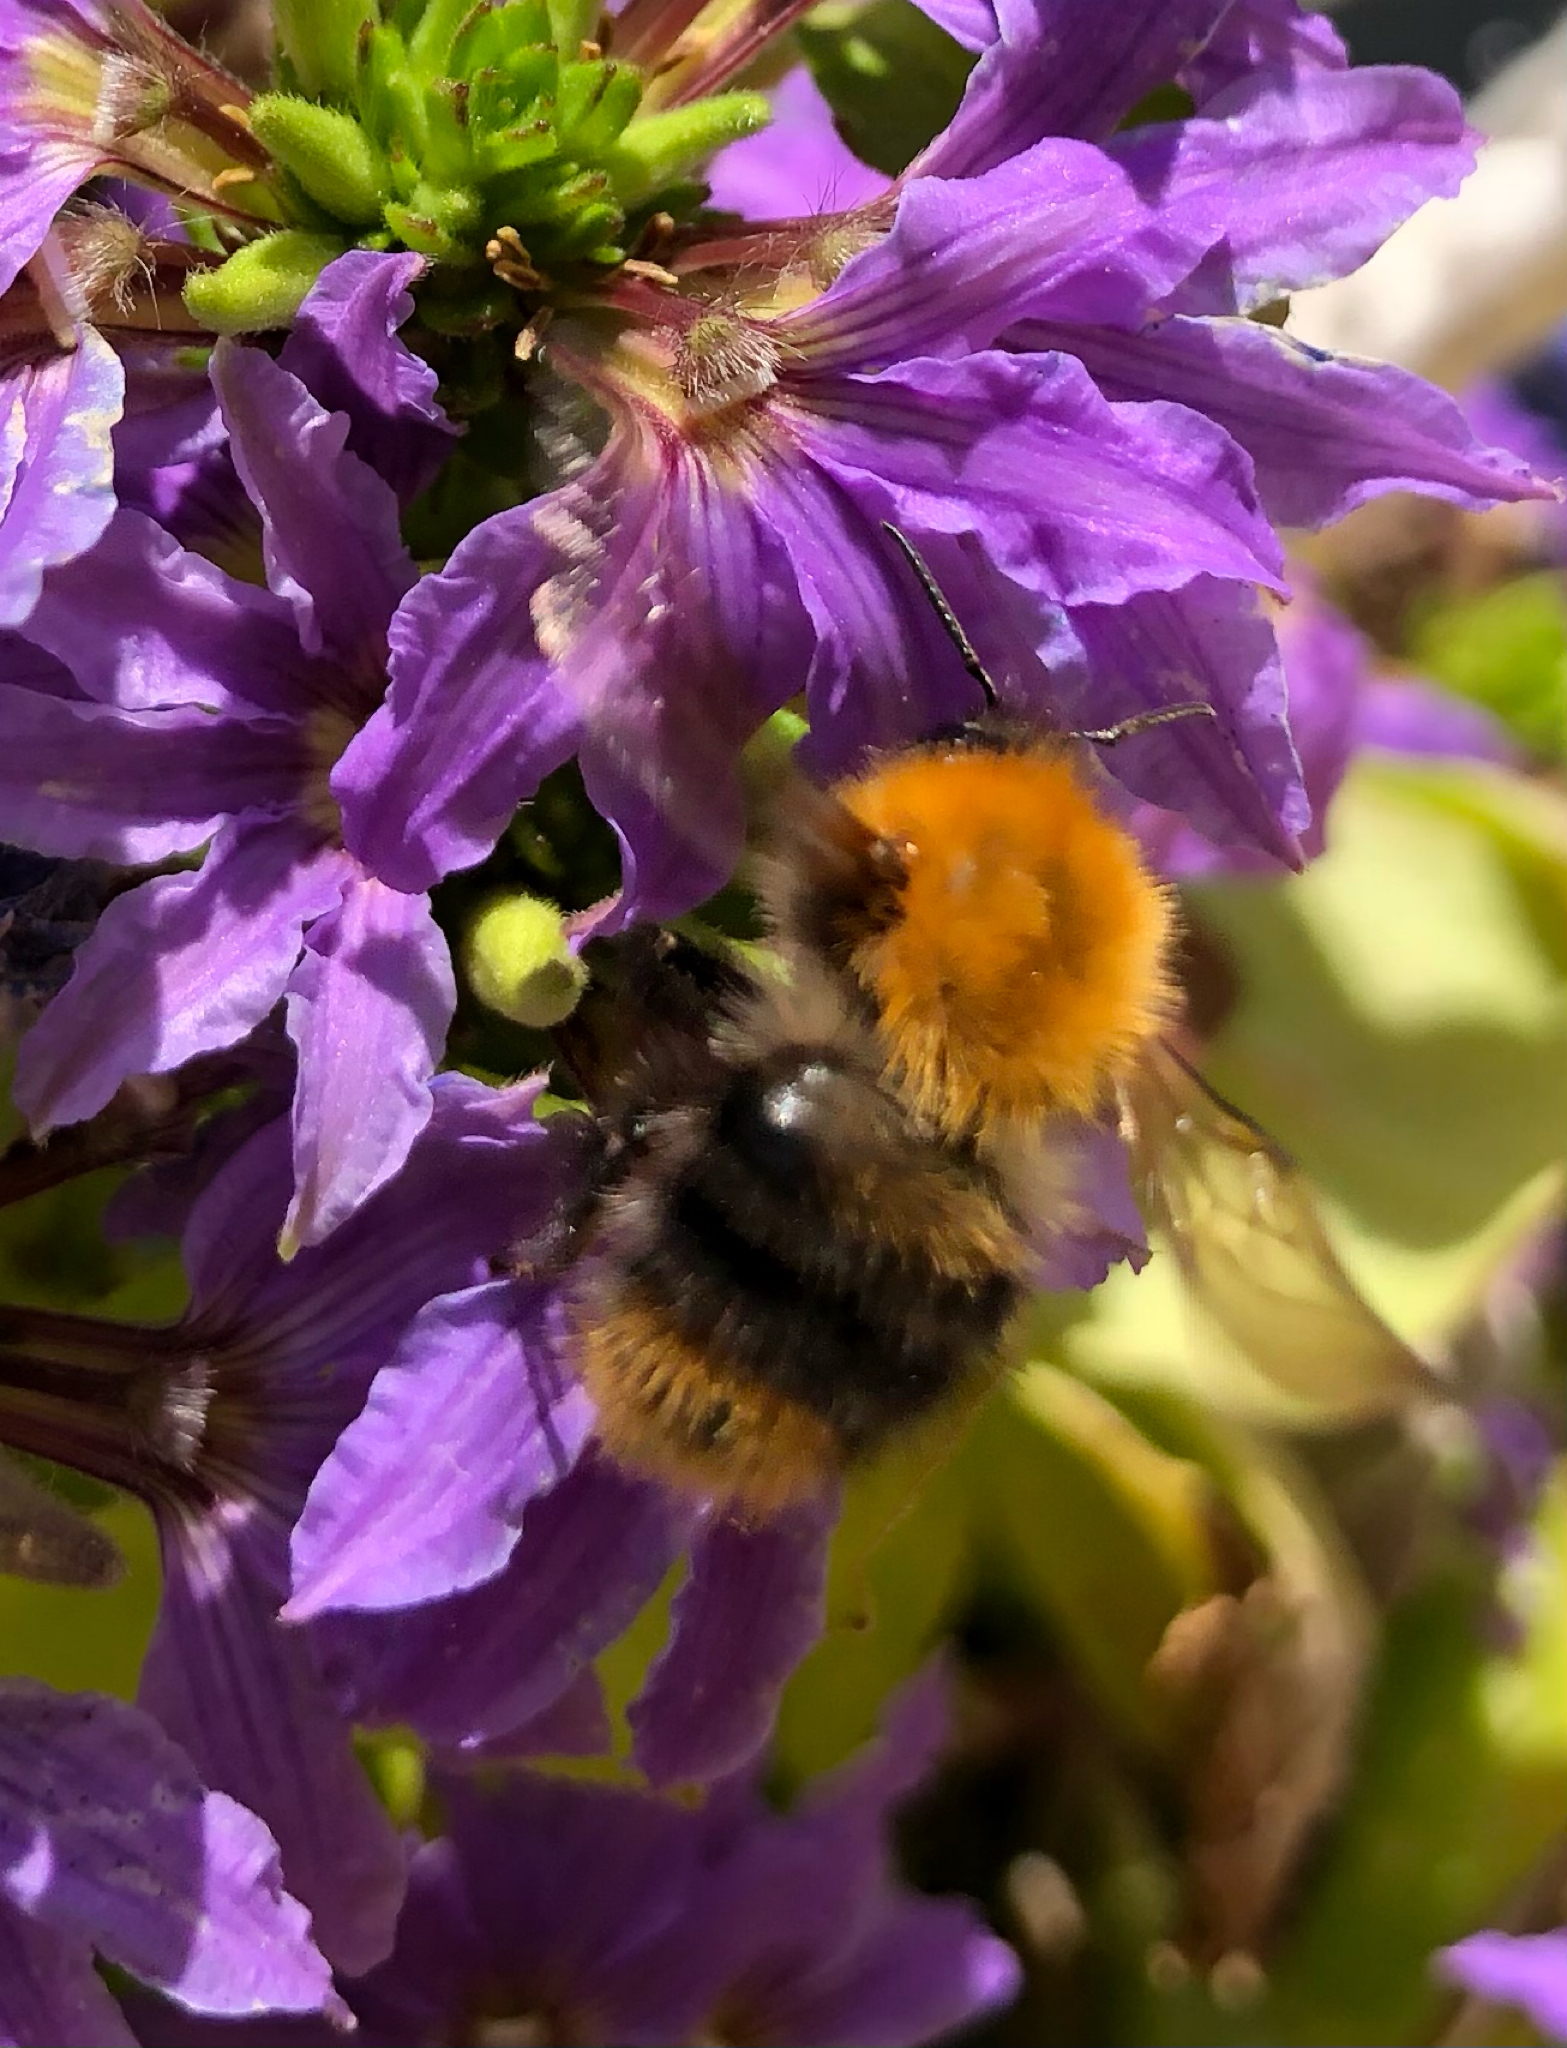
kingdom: Animalia
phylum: Arthropoda
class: Insecta
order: Hymenoptera
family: Apidae
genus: Bombus
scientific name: Bombus pascuorum
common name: Common carder bee
